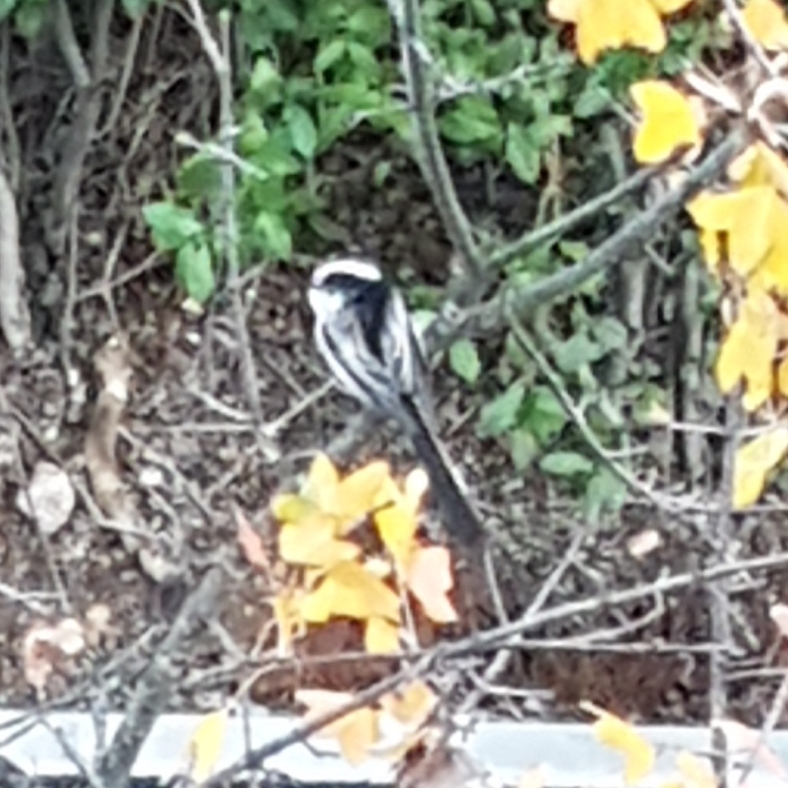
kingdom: Animalia
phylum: Chordata
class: Aves
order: Passeriformes
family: Aegithalidae
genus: Aegithalos
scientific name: Aegithalos caudatus
